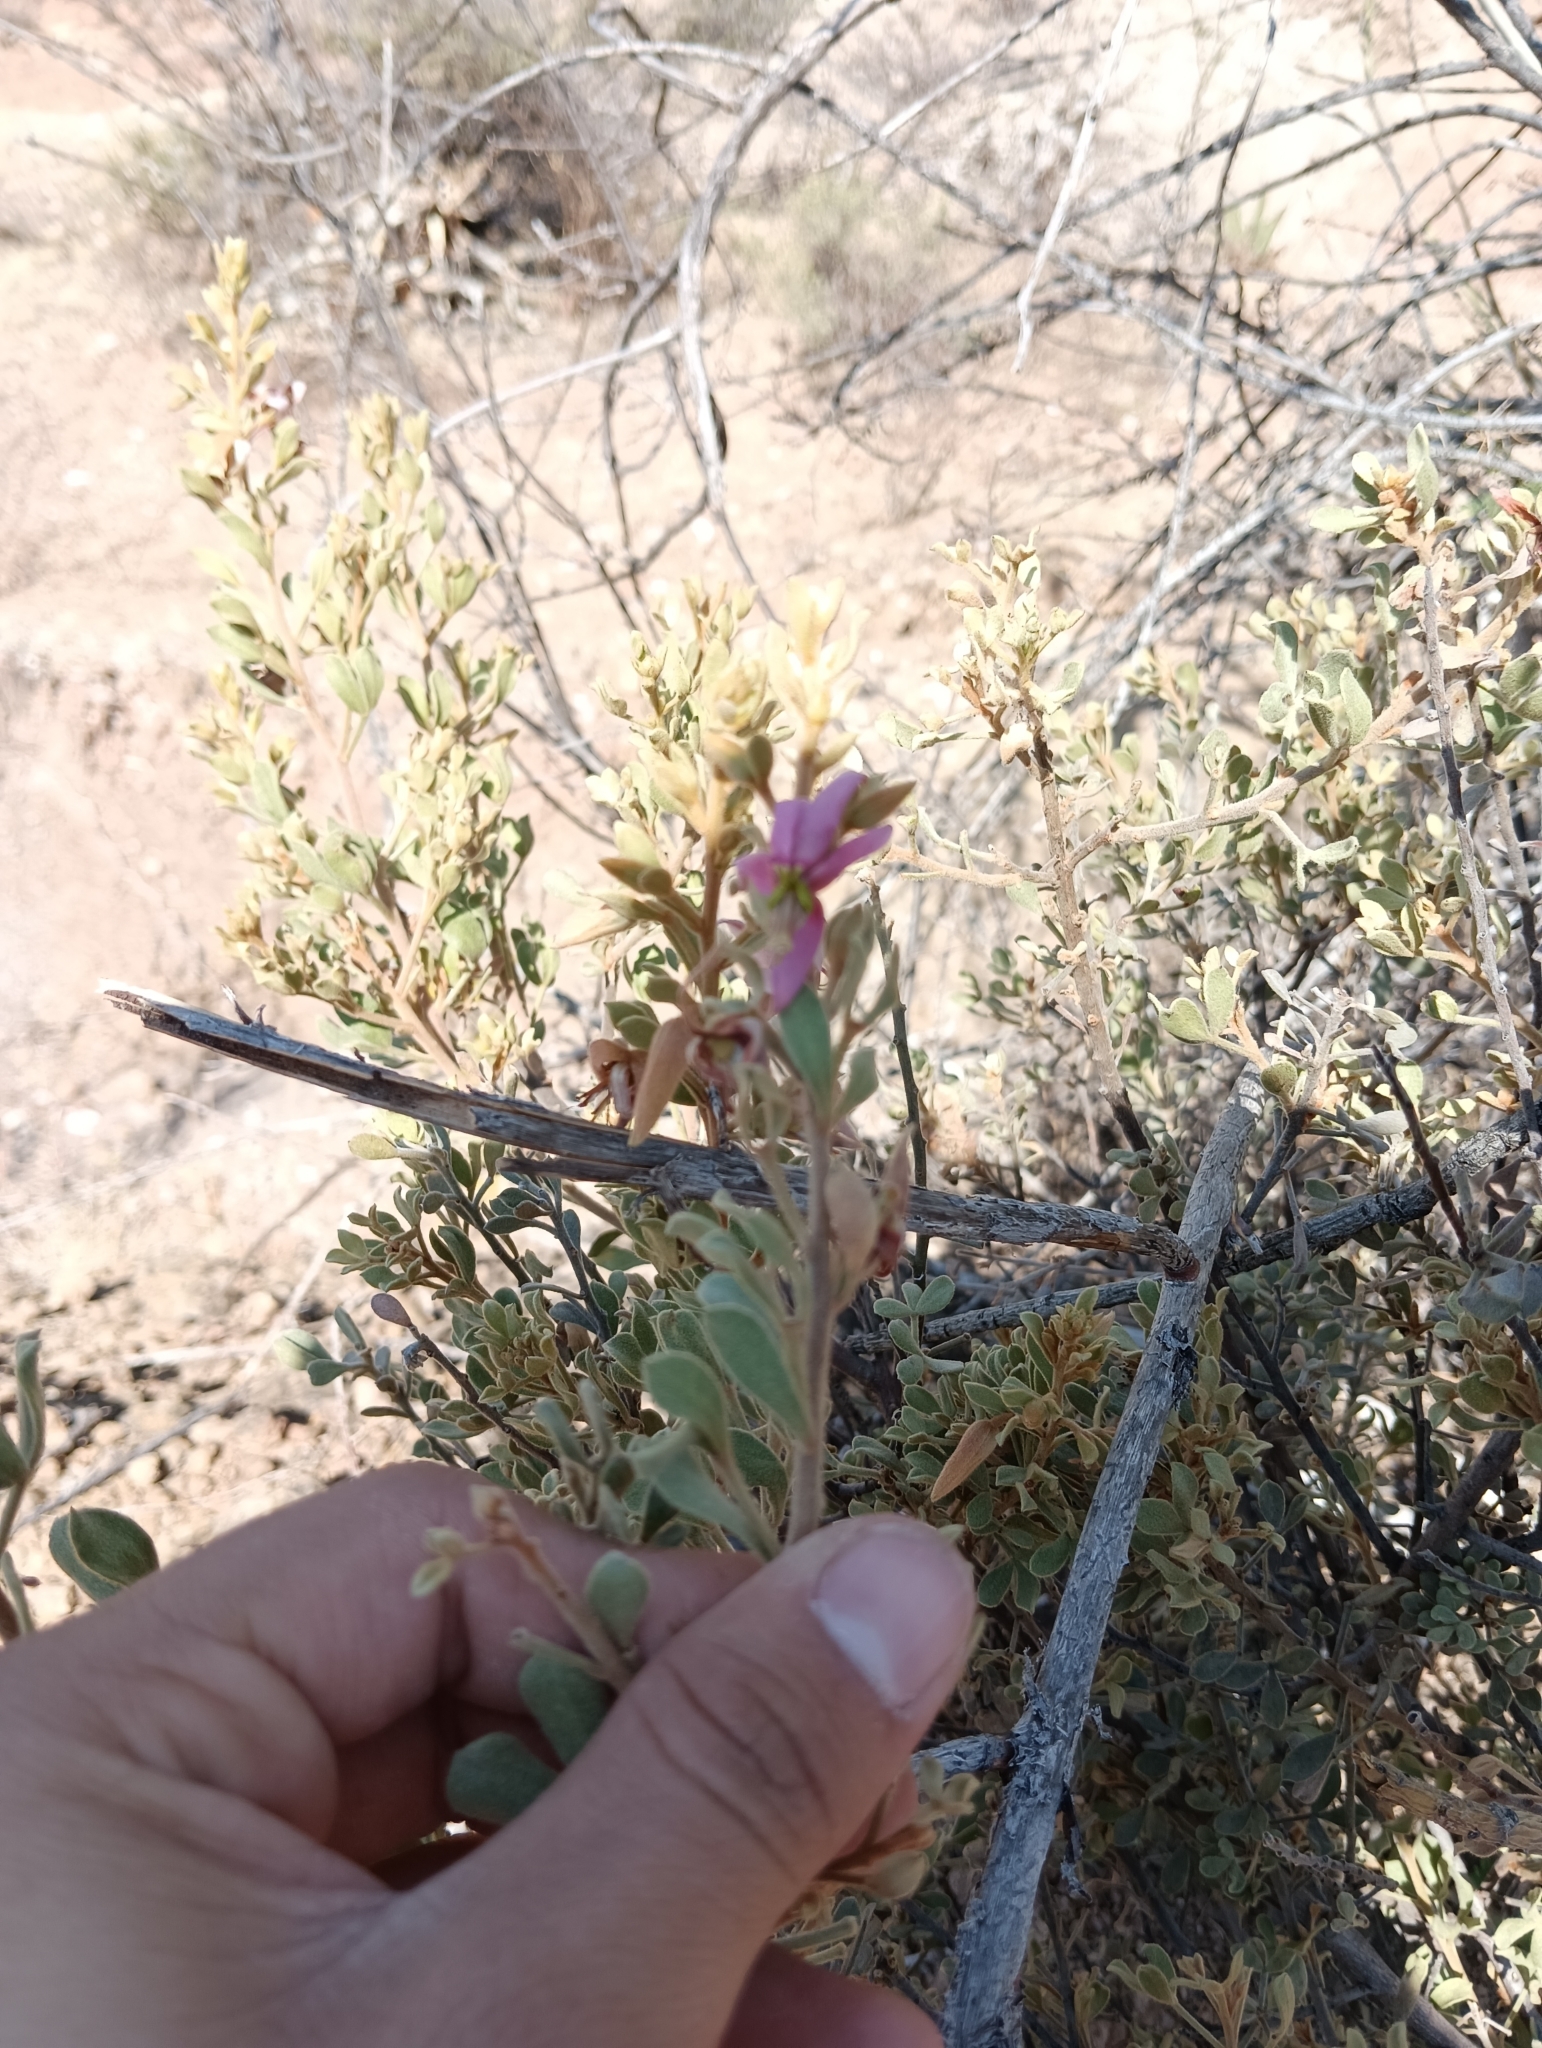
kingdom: Plantae
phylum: Tracheophyta
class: Magnoliopsida
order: Zygophyllales
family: Krameriaceae
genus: Krameria
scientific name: Krameria cytisoides
